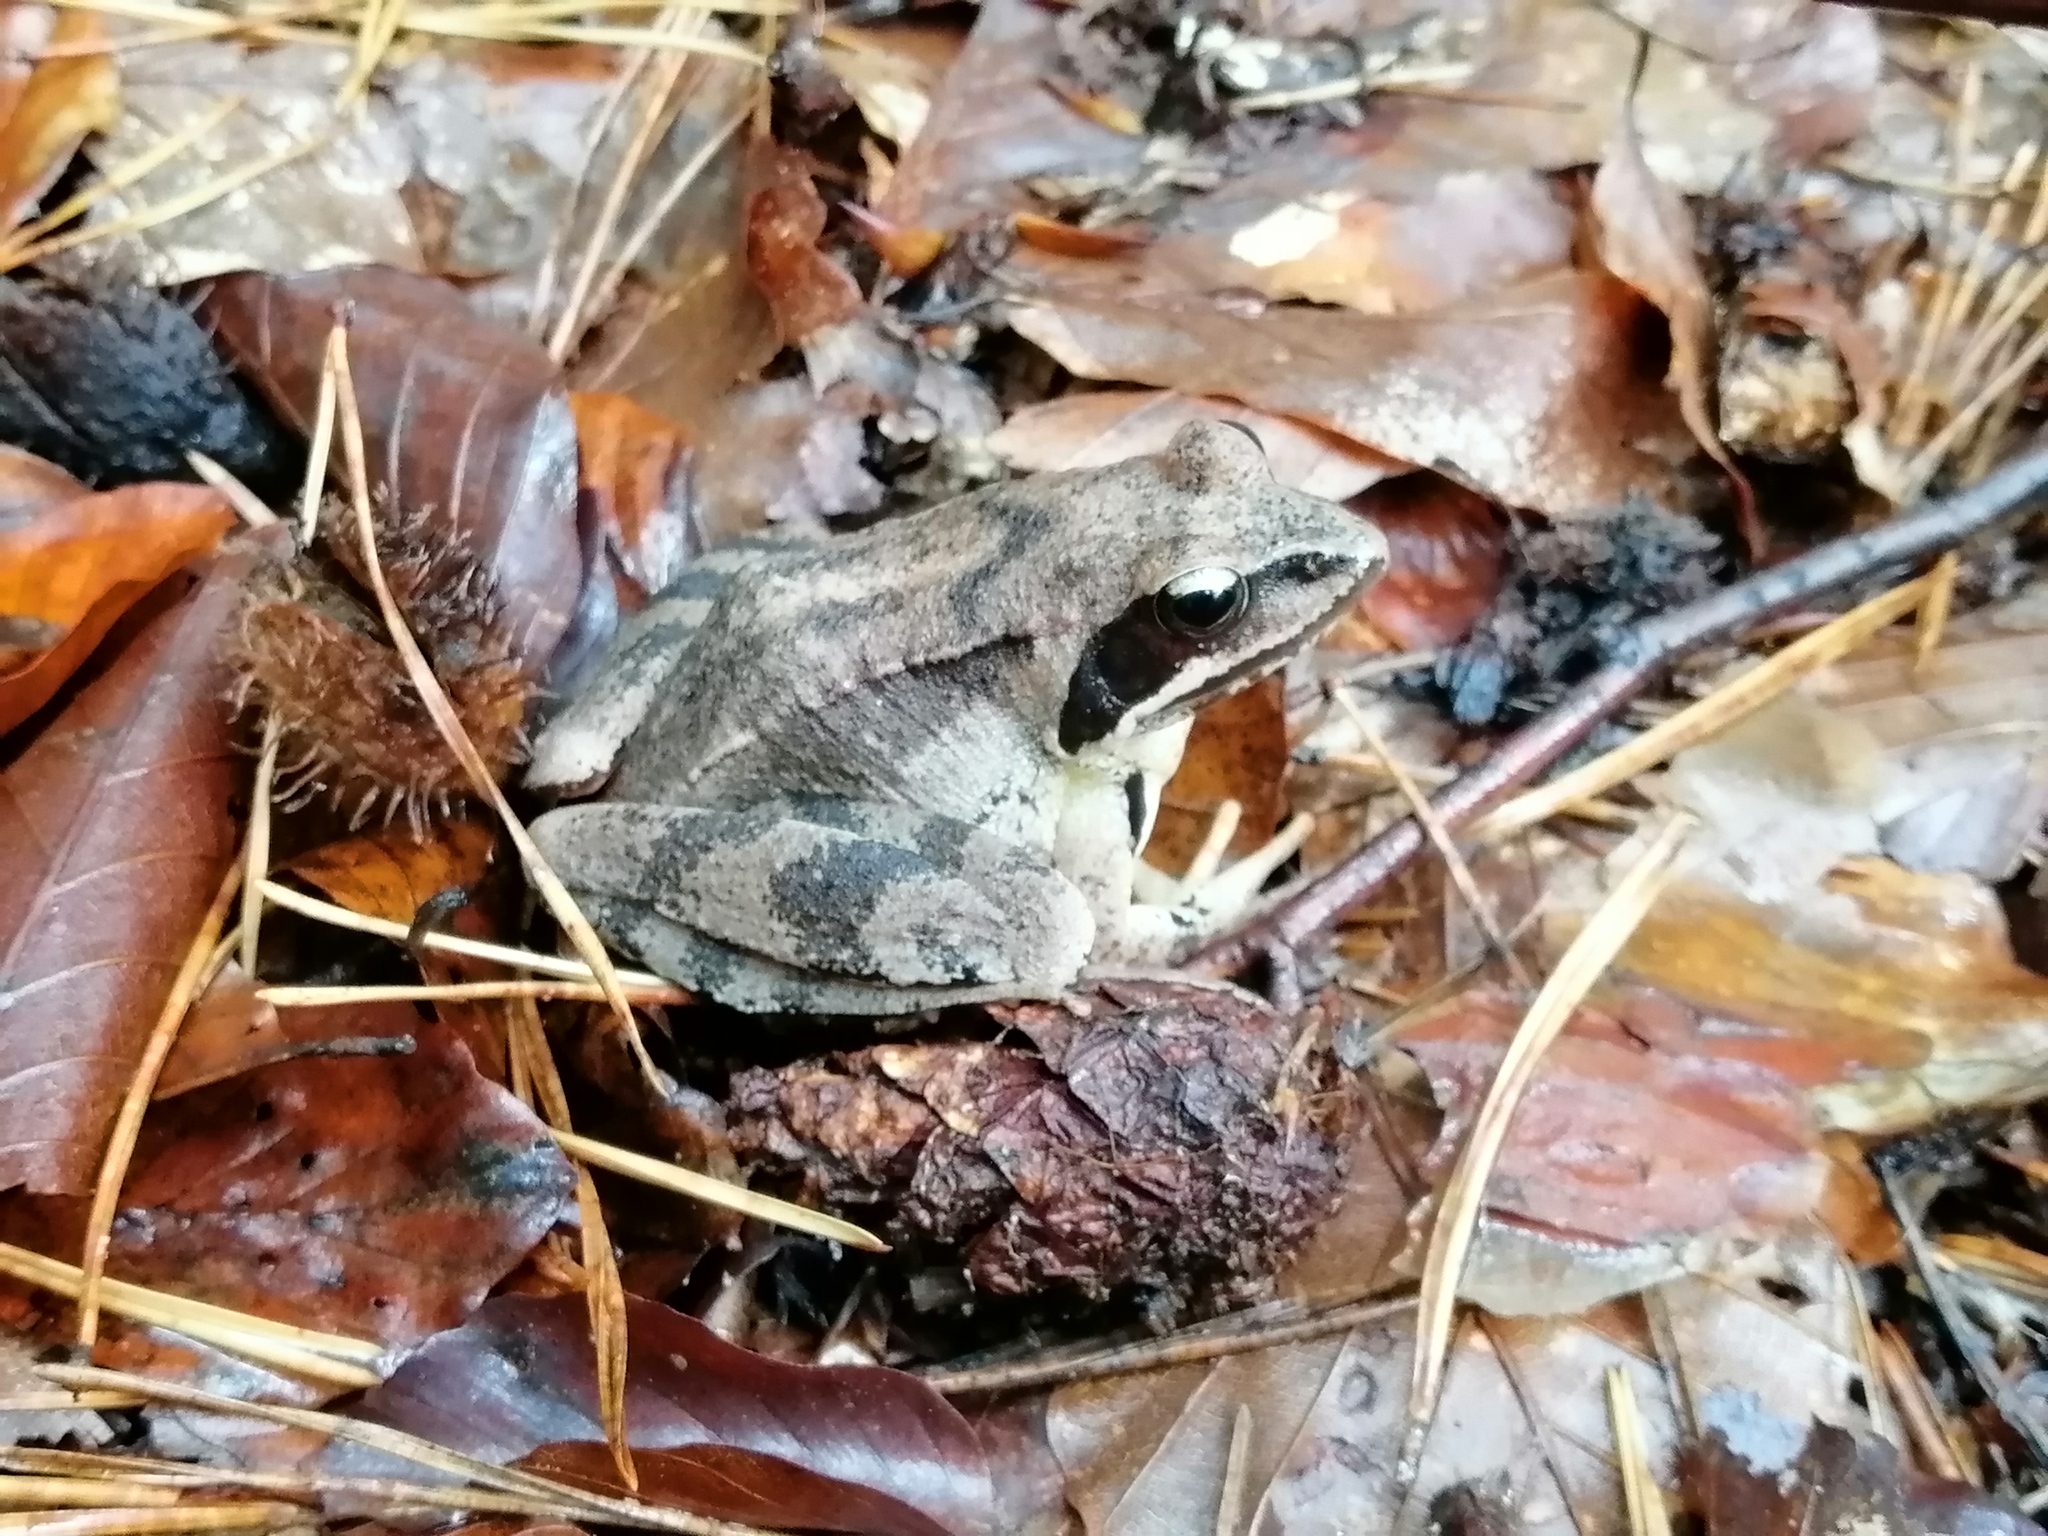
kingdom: Animalia
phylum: Chordata
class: Amphibia
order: Anura
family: Ranidae
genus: Rana
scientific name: Rana dalmatina
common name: Agile frog
